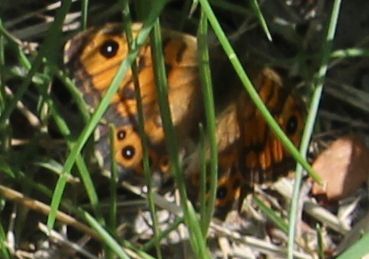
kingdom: Animalia
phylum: Arthropoda
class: Insecta
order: Lepidoptera
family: Nymphalidae
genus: Pararge
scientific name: Pararge Lasiommata megera
